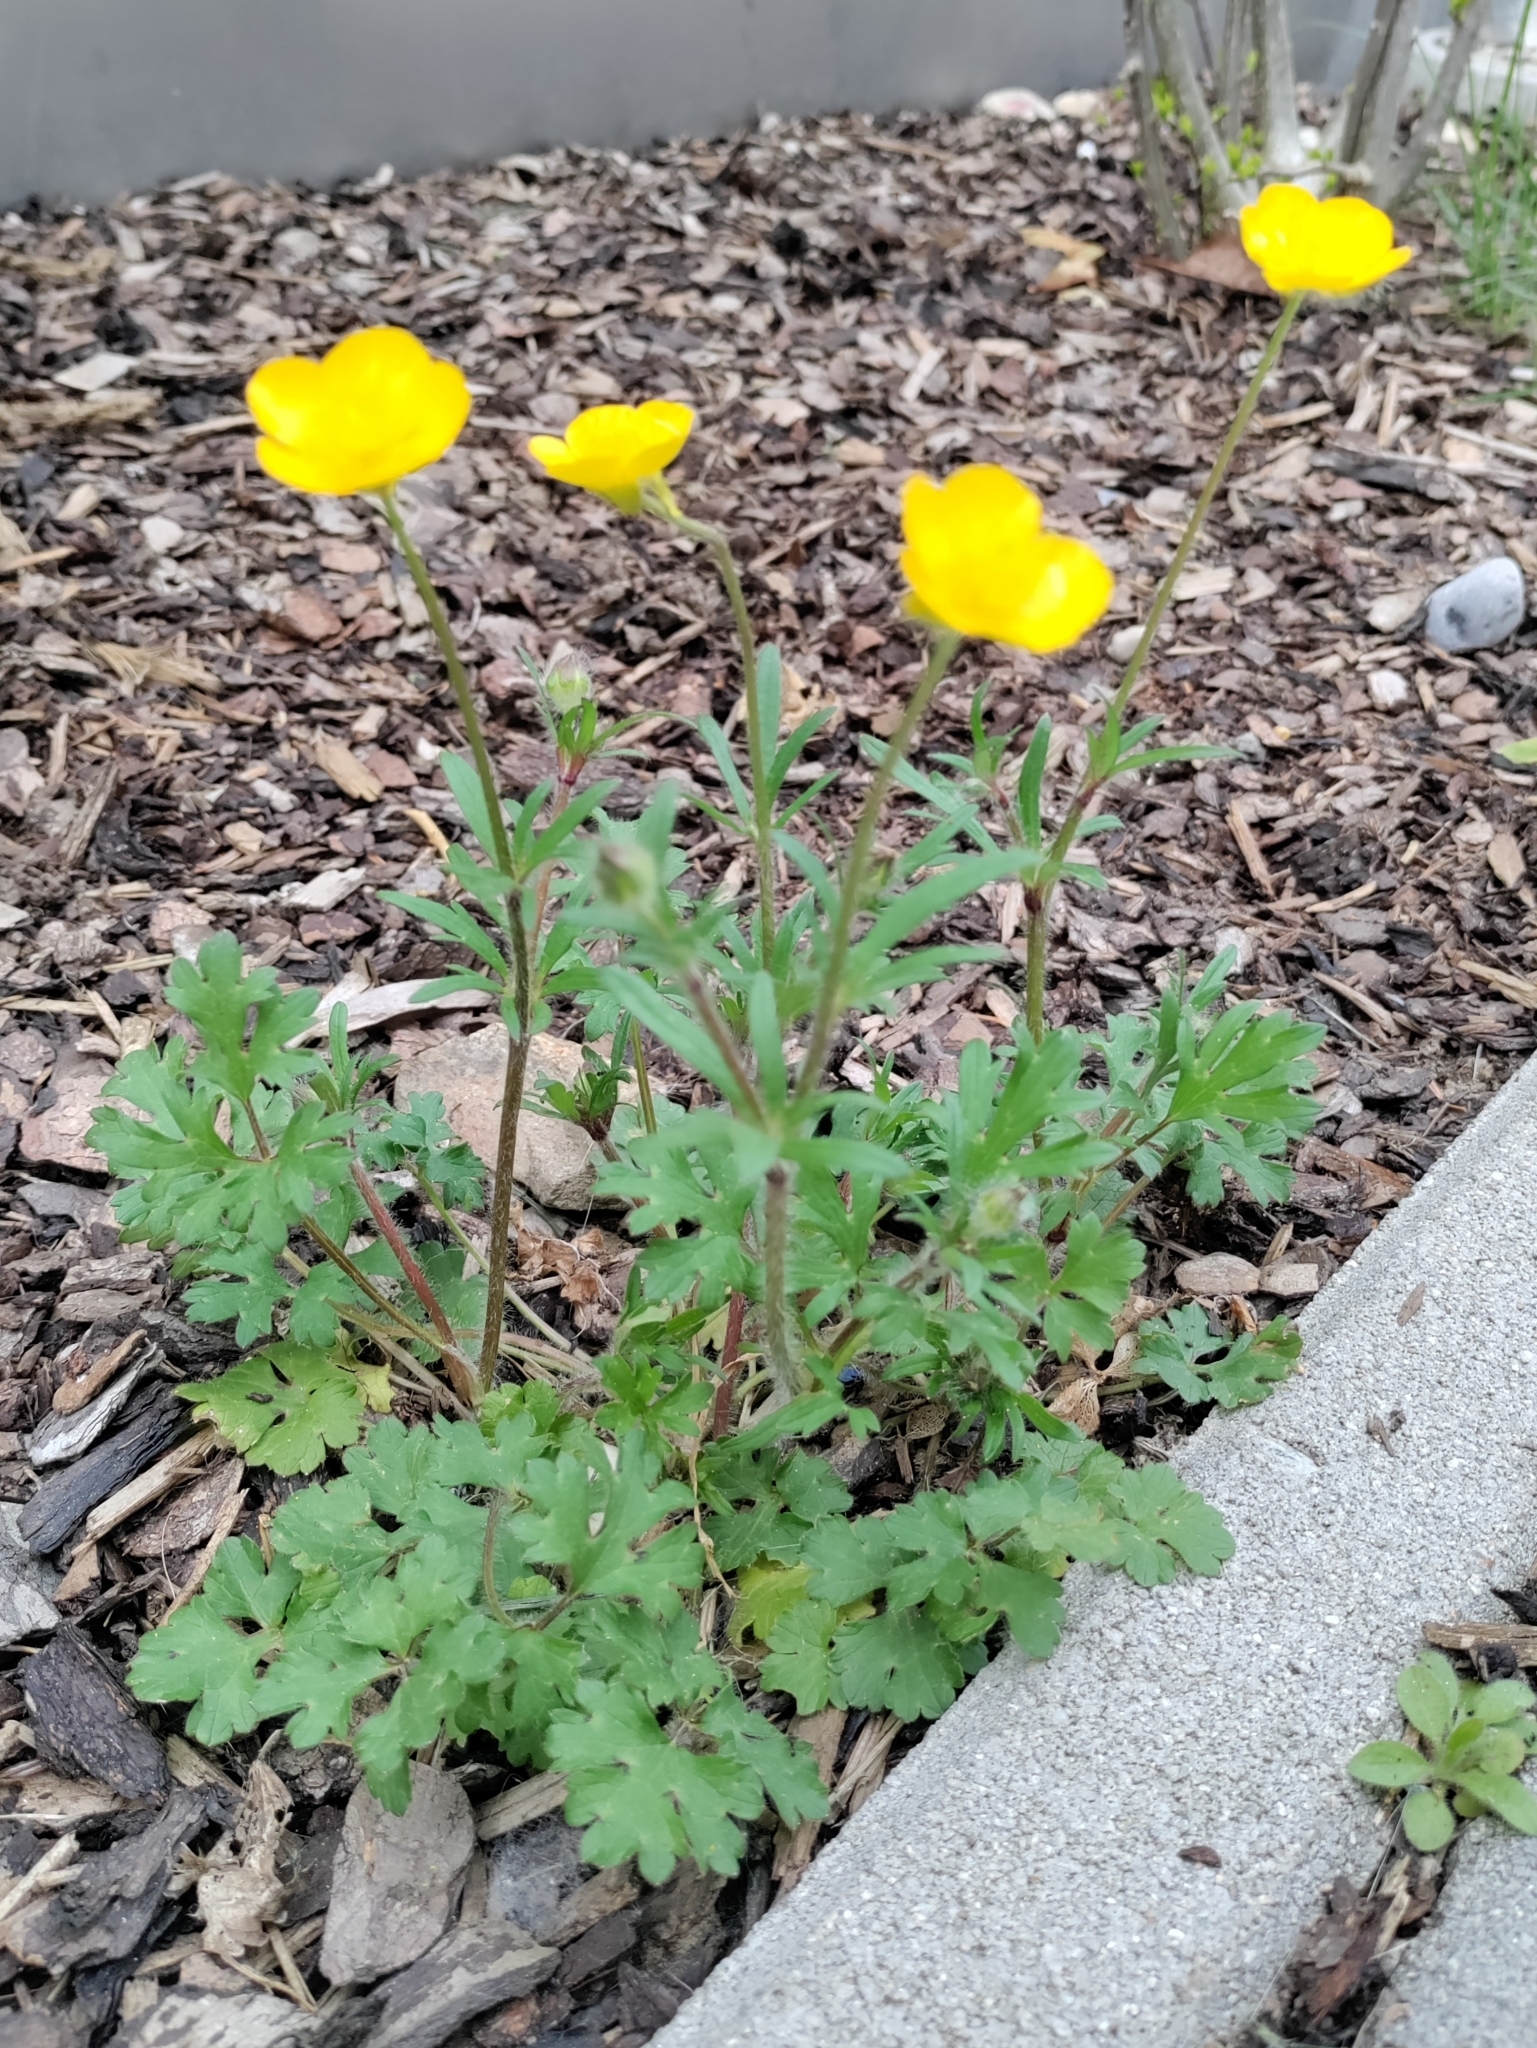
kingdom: Plantae
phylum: Tracheophyta
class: Magnoliopsida
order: Ranunculales
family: Ranunculaceae
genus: Ranunculus
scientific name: Ranunculus bulbosus
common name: Bulbous buttercup
